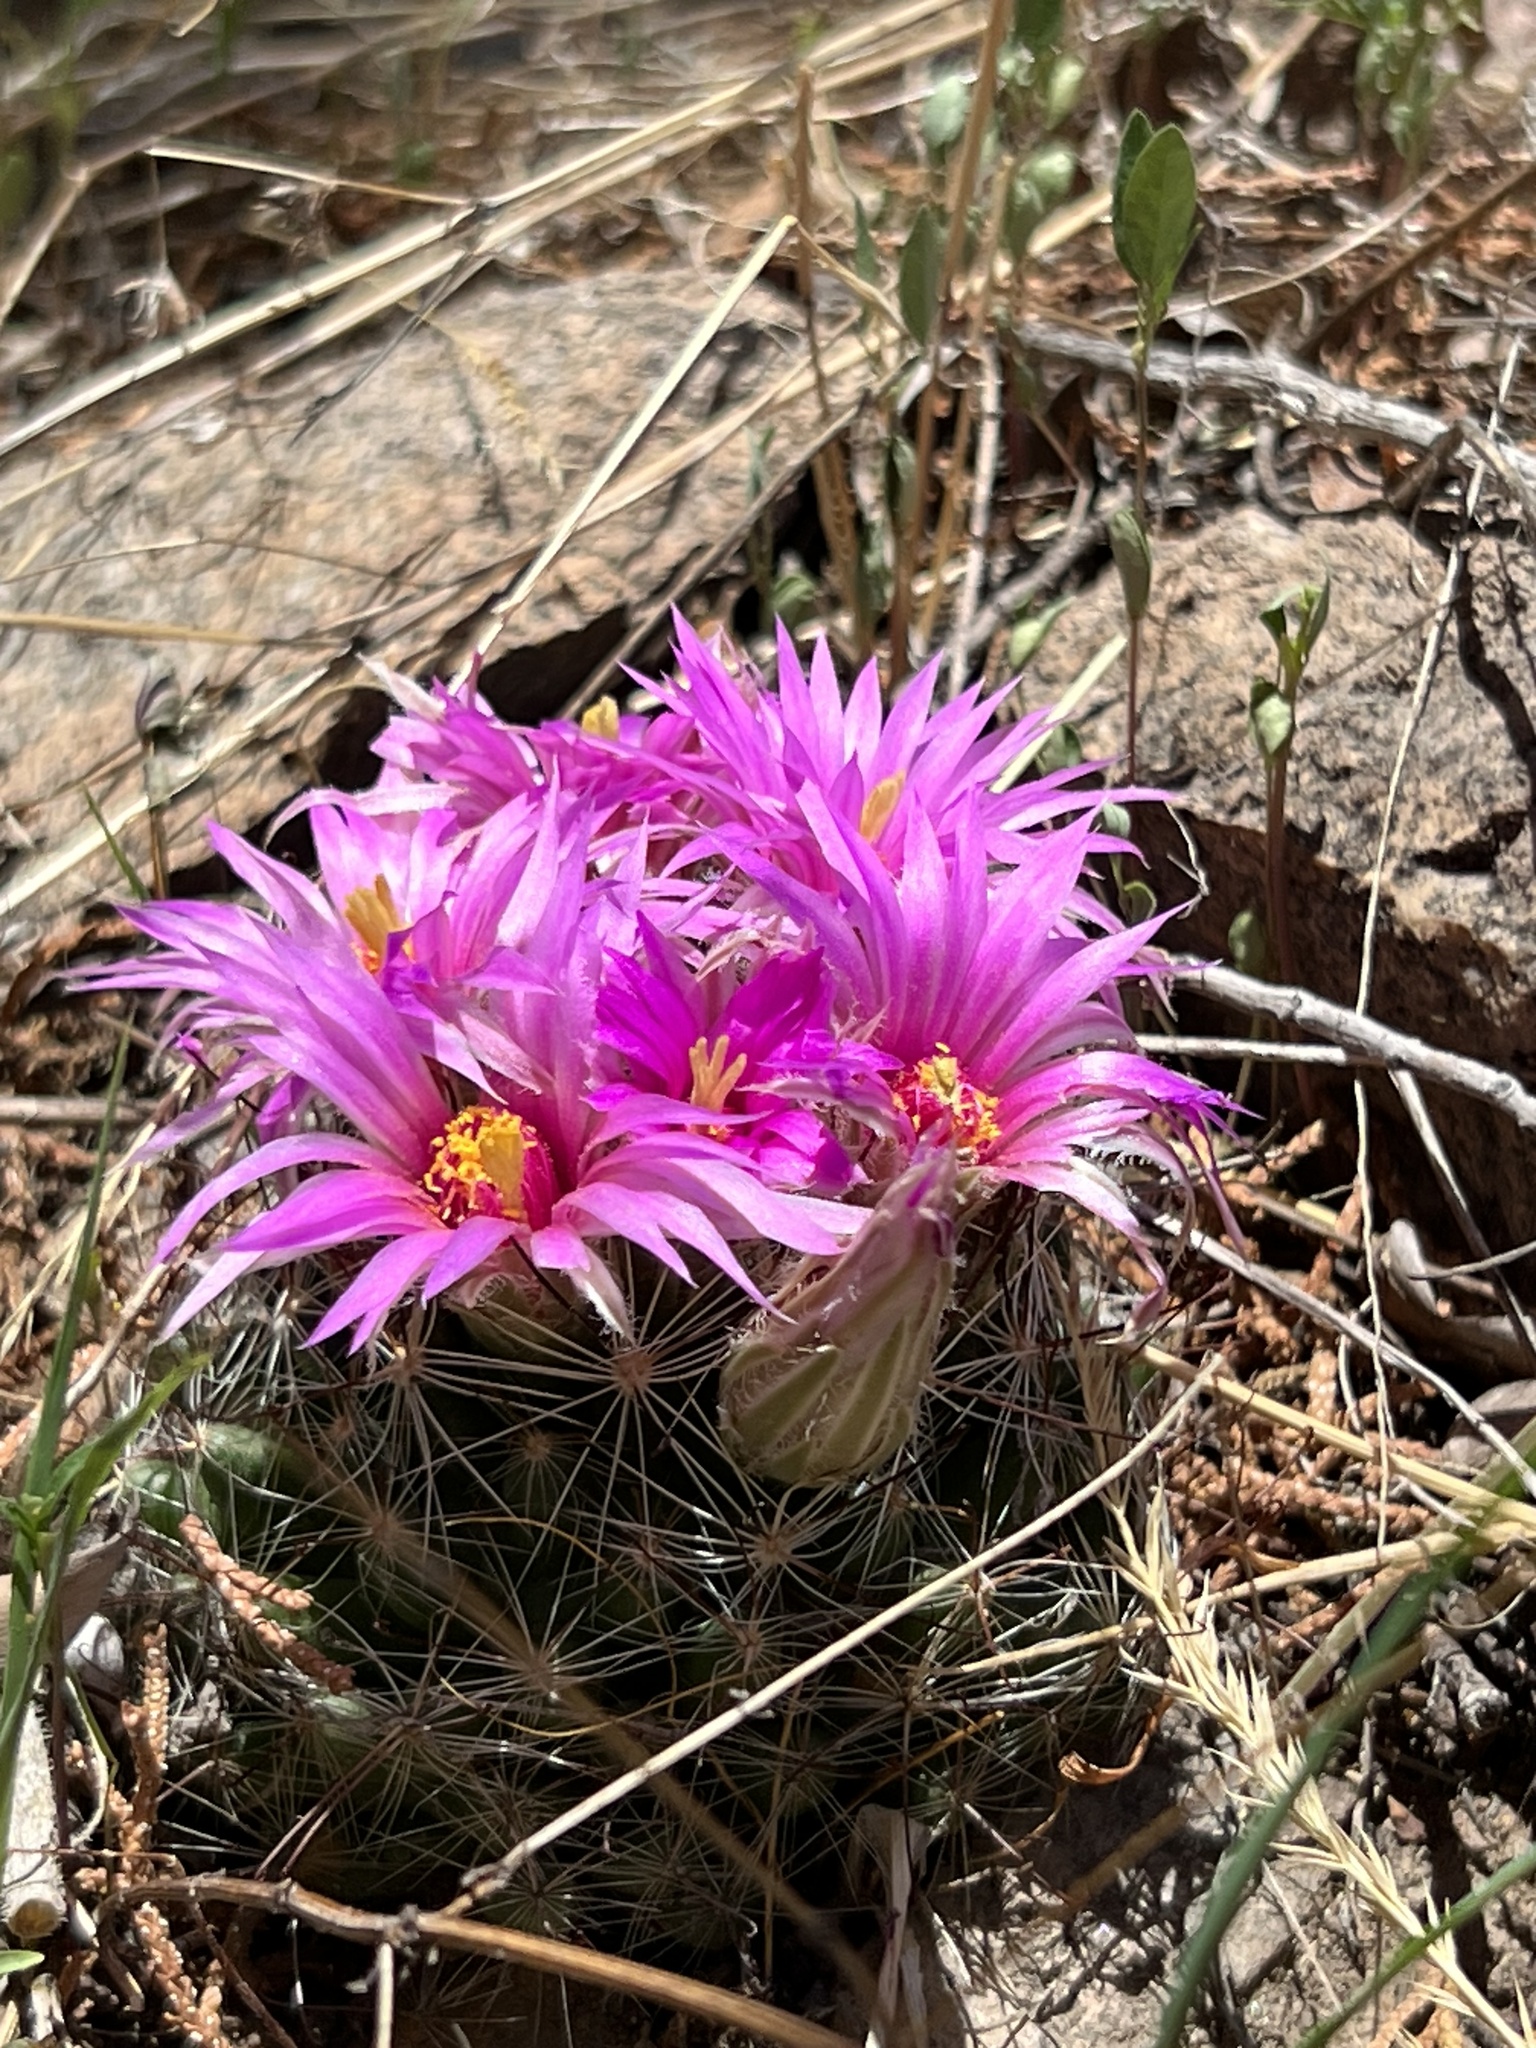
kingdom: Plantae
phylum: Tracheophyta
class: Magnoliopsida
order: Caryophyllales
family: Cactaceae
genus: Cochemiea
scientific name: Cochemiea wrightii
